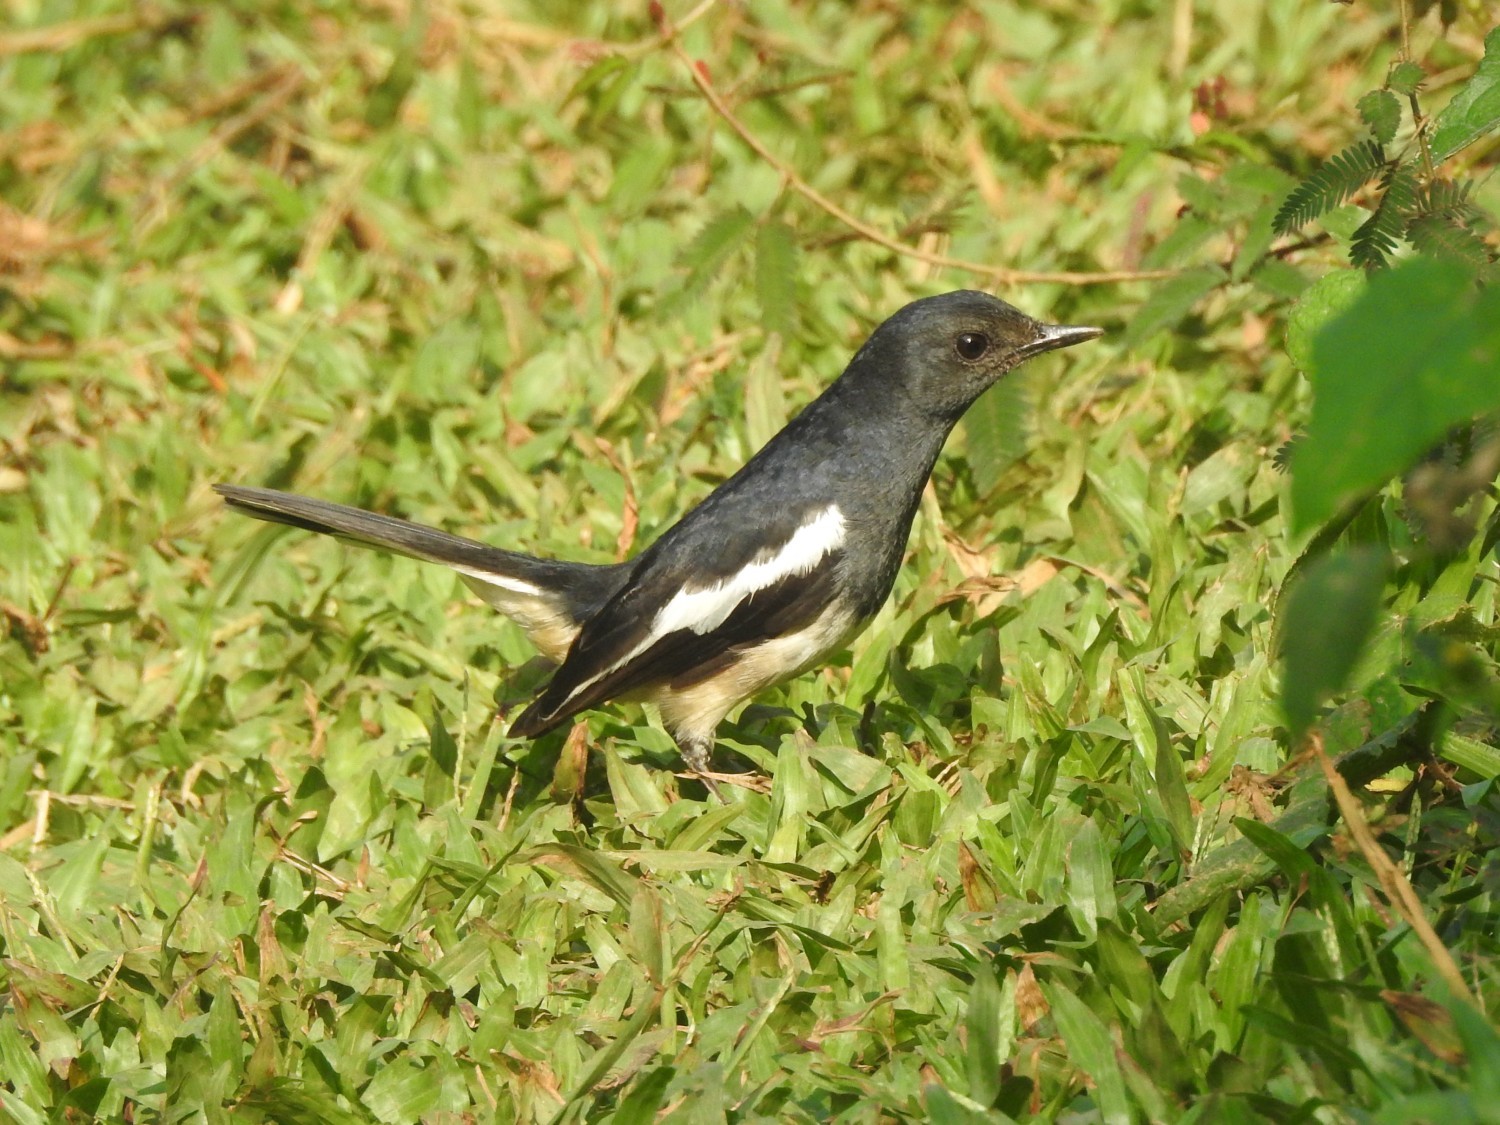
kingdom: Animalia
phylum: Chordata
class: Aves
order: Passeriformes
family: Muscicapidae
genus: Copsychus
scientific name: Copsychus saularis
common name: Oriental magpie-robin
